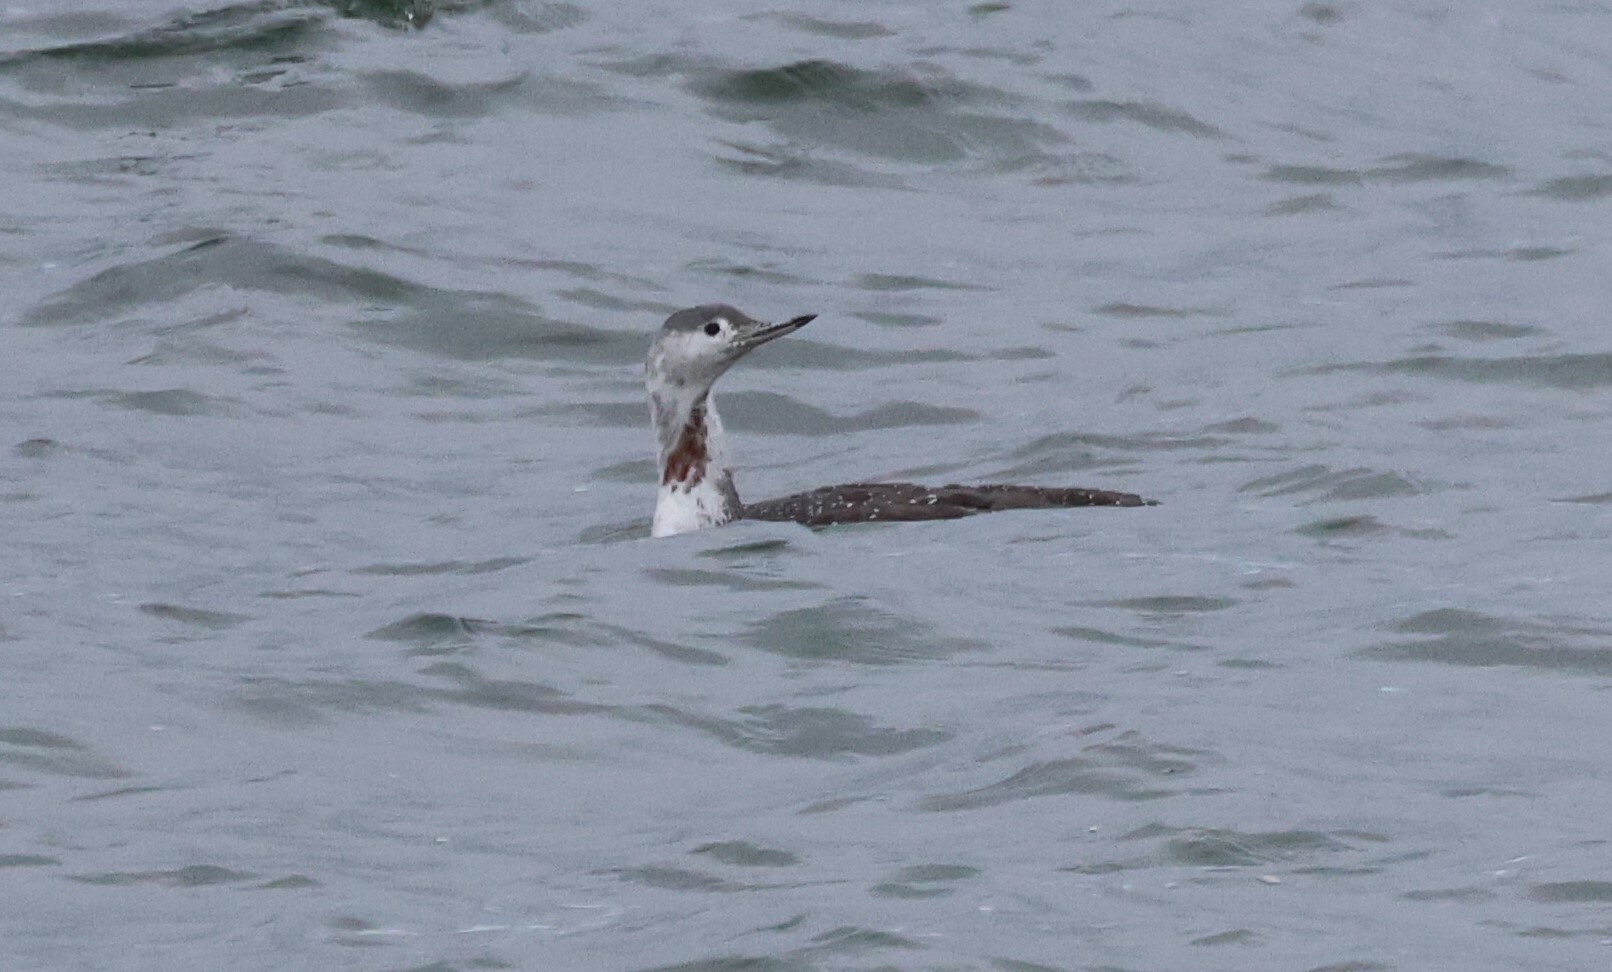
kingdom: Animalia
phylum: Chordata
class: Aves
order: Gaviiformes
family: Gaviidae
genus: Gavia
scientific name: Gavia stellata
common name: Red-throated loon
